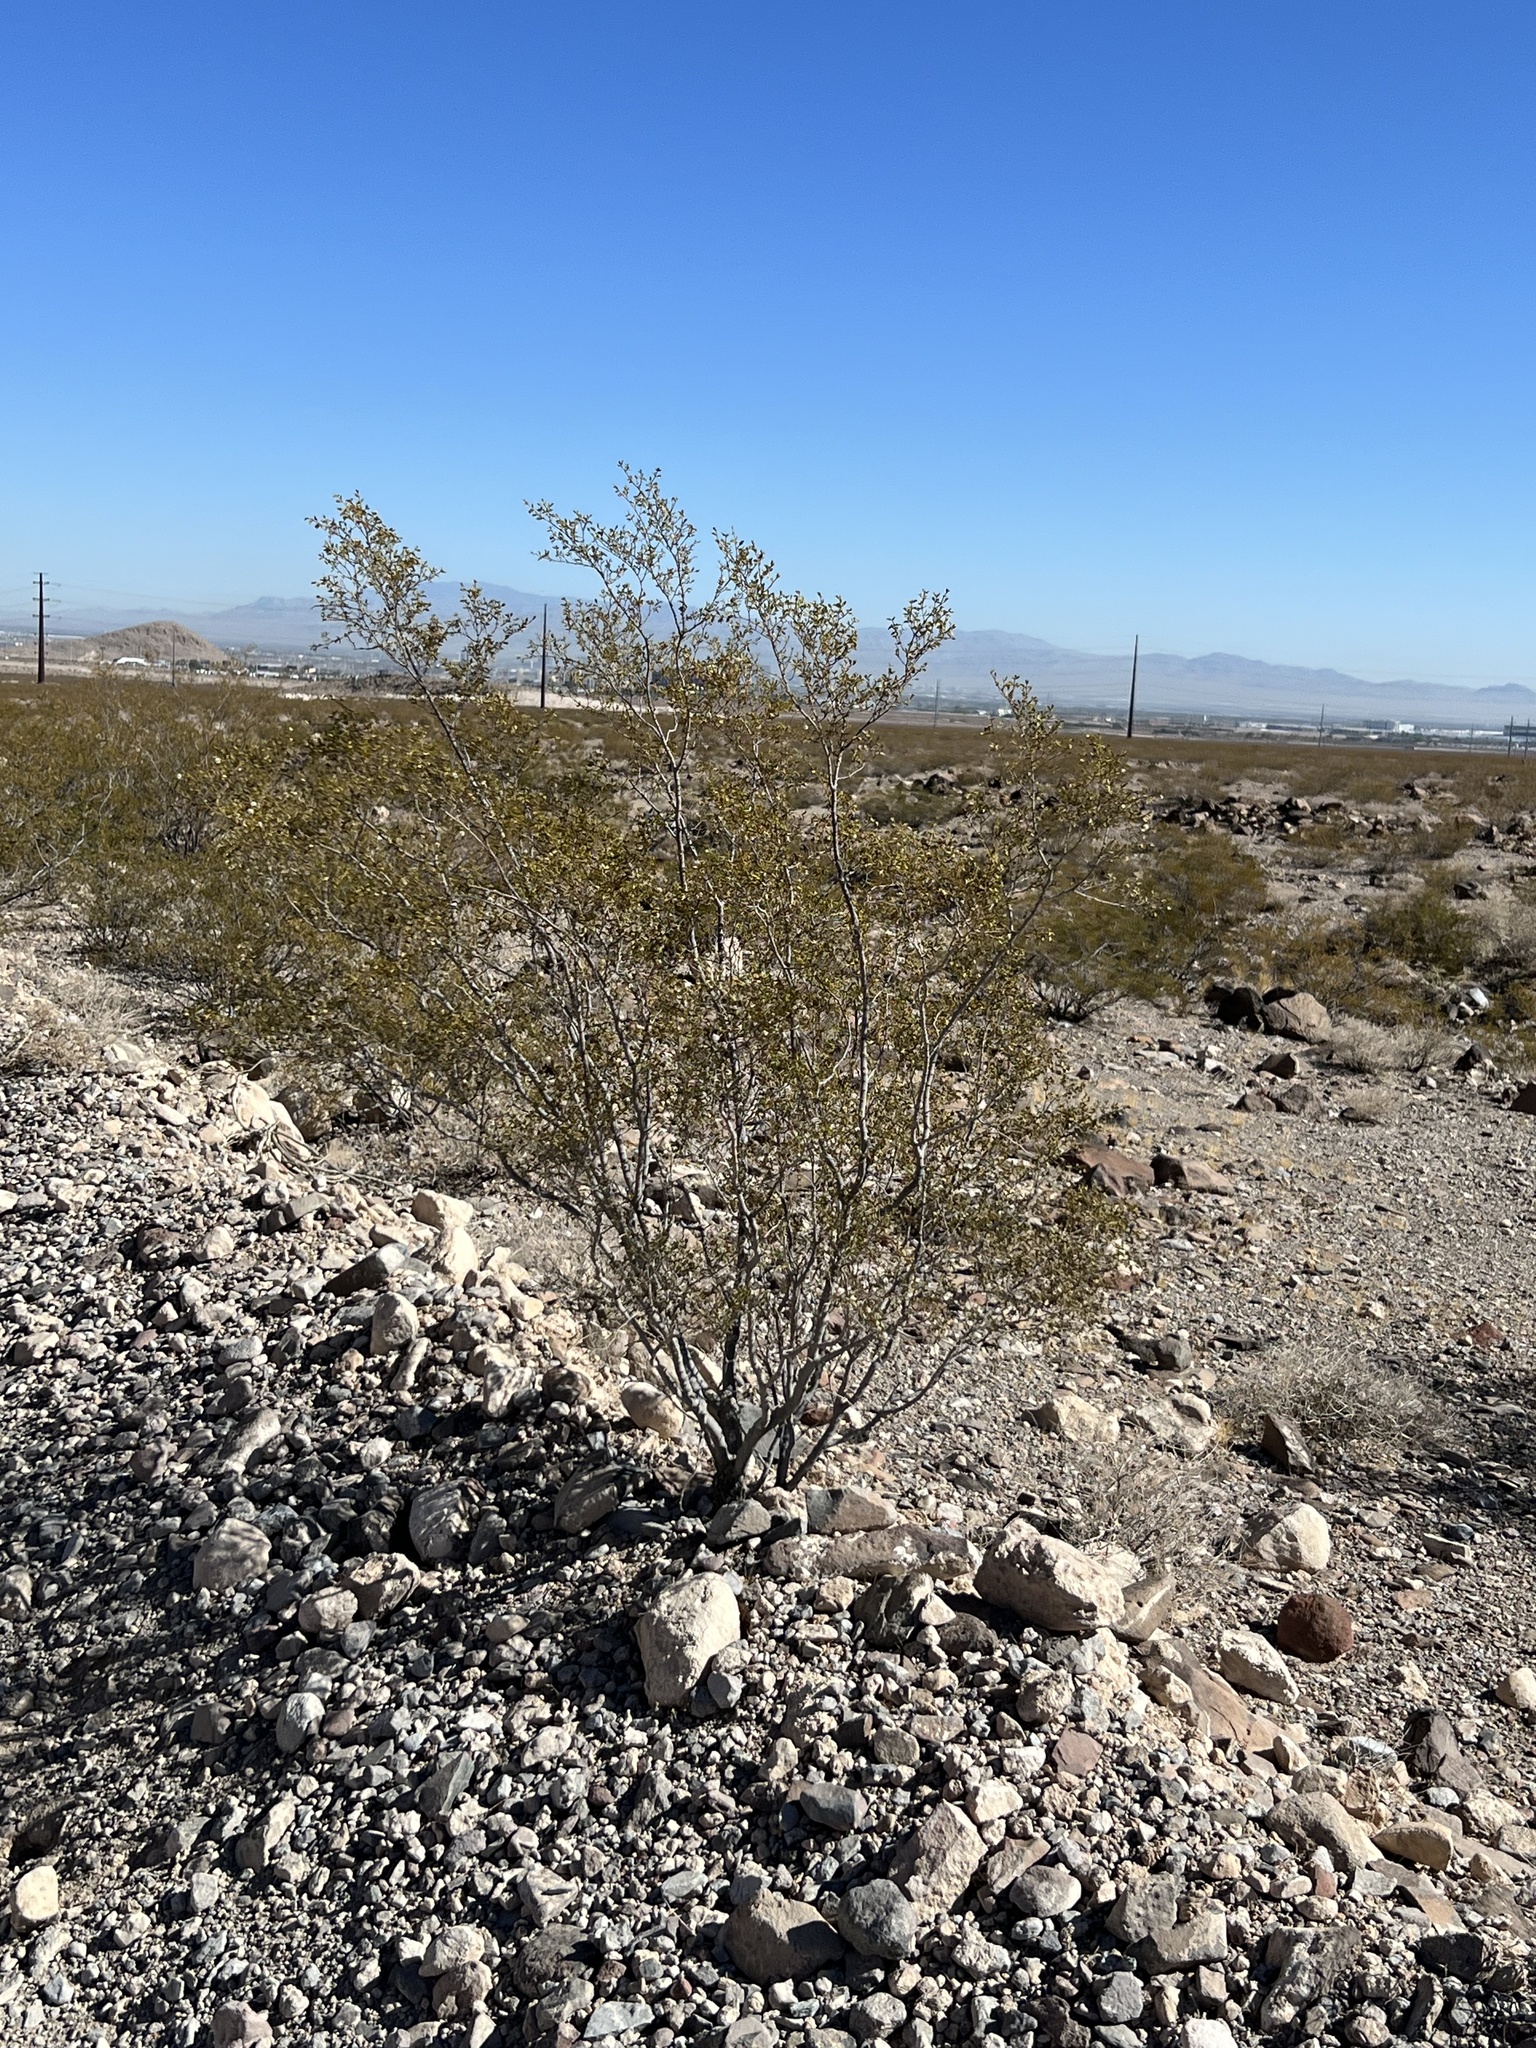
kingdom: Plantae
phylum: Tracheophyta
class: Magnoliopsida
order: Zygophyllales
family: Zygophyllaceae
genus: Larrea
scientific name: Larrea tridentata
